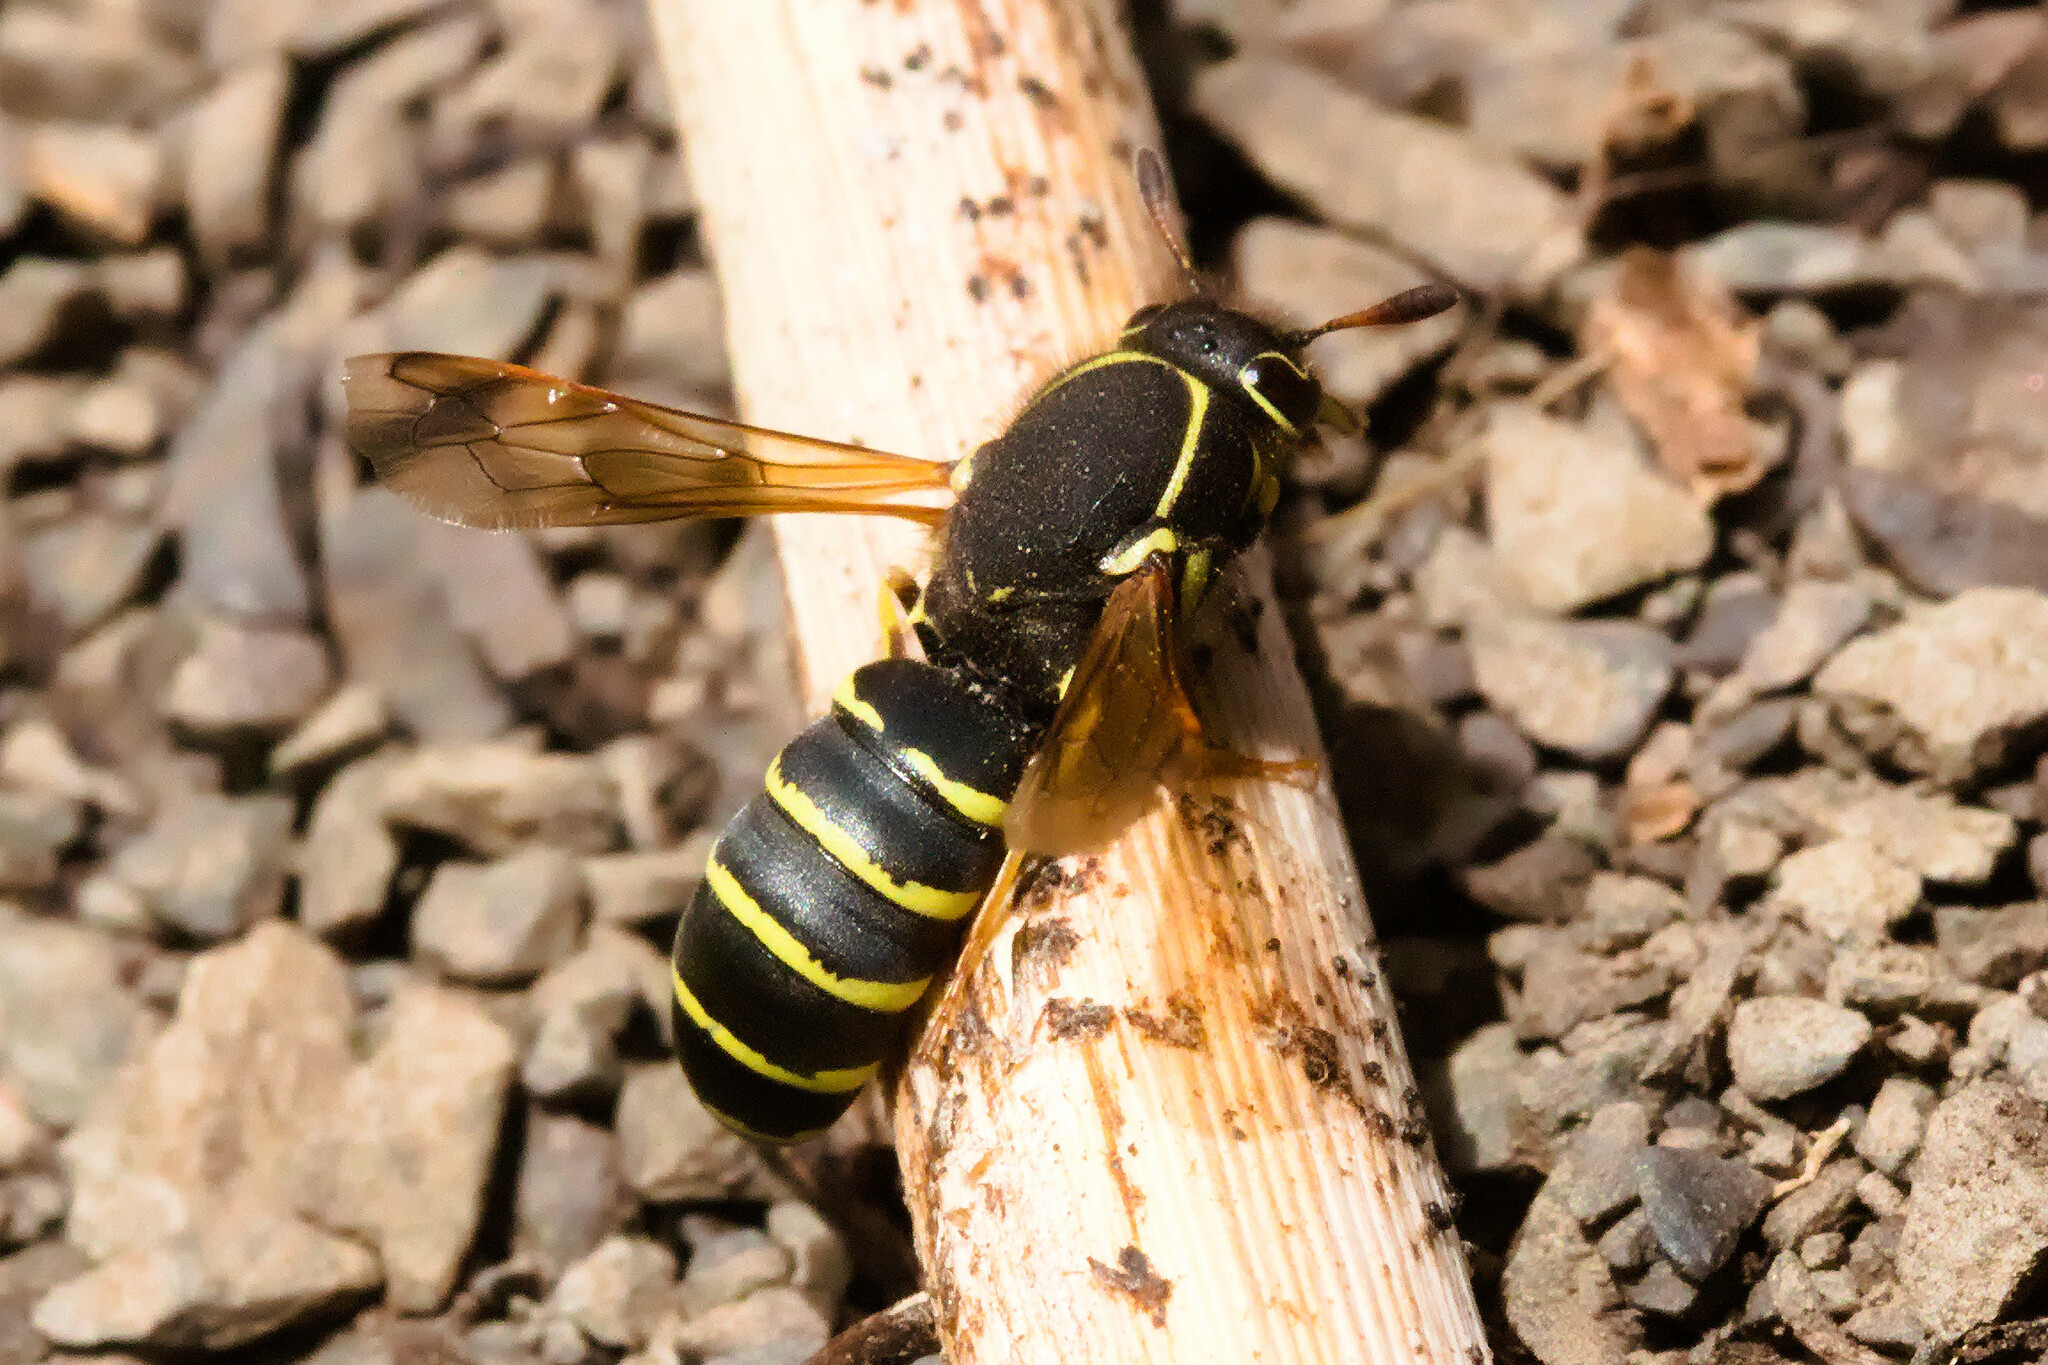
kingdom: Animalia
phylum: Arthropoda
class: Insecta
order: Hymenoptera
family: Masaridae
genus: Pseudomasaris
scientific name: Pseudomasaris zonalis
